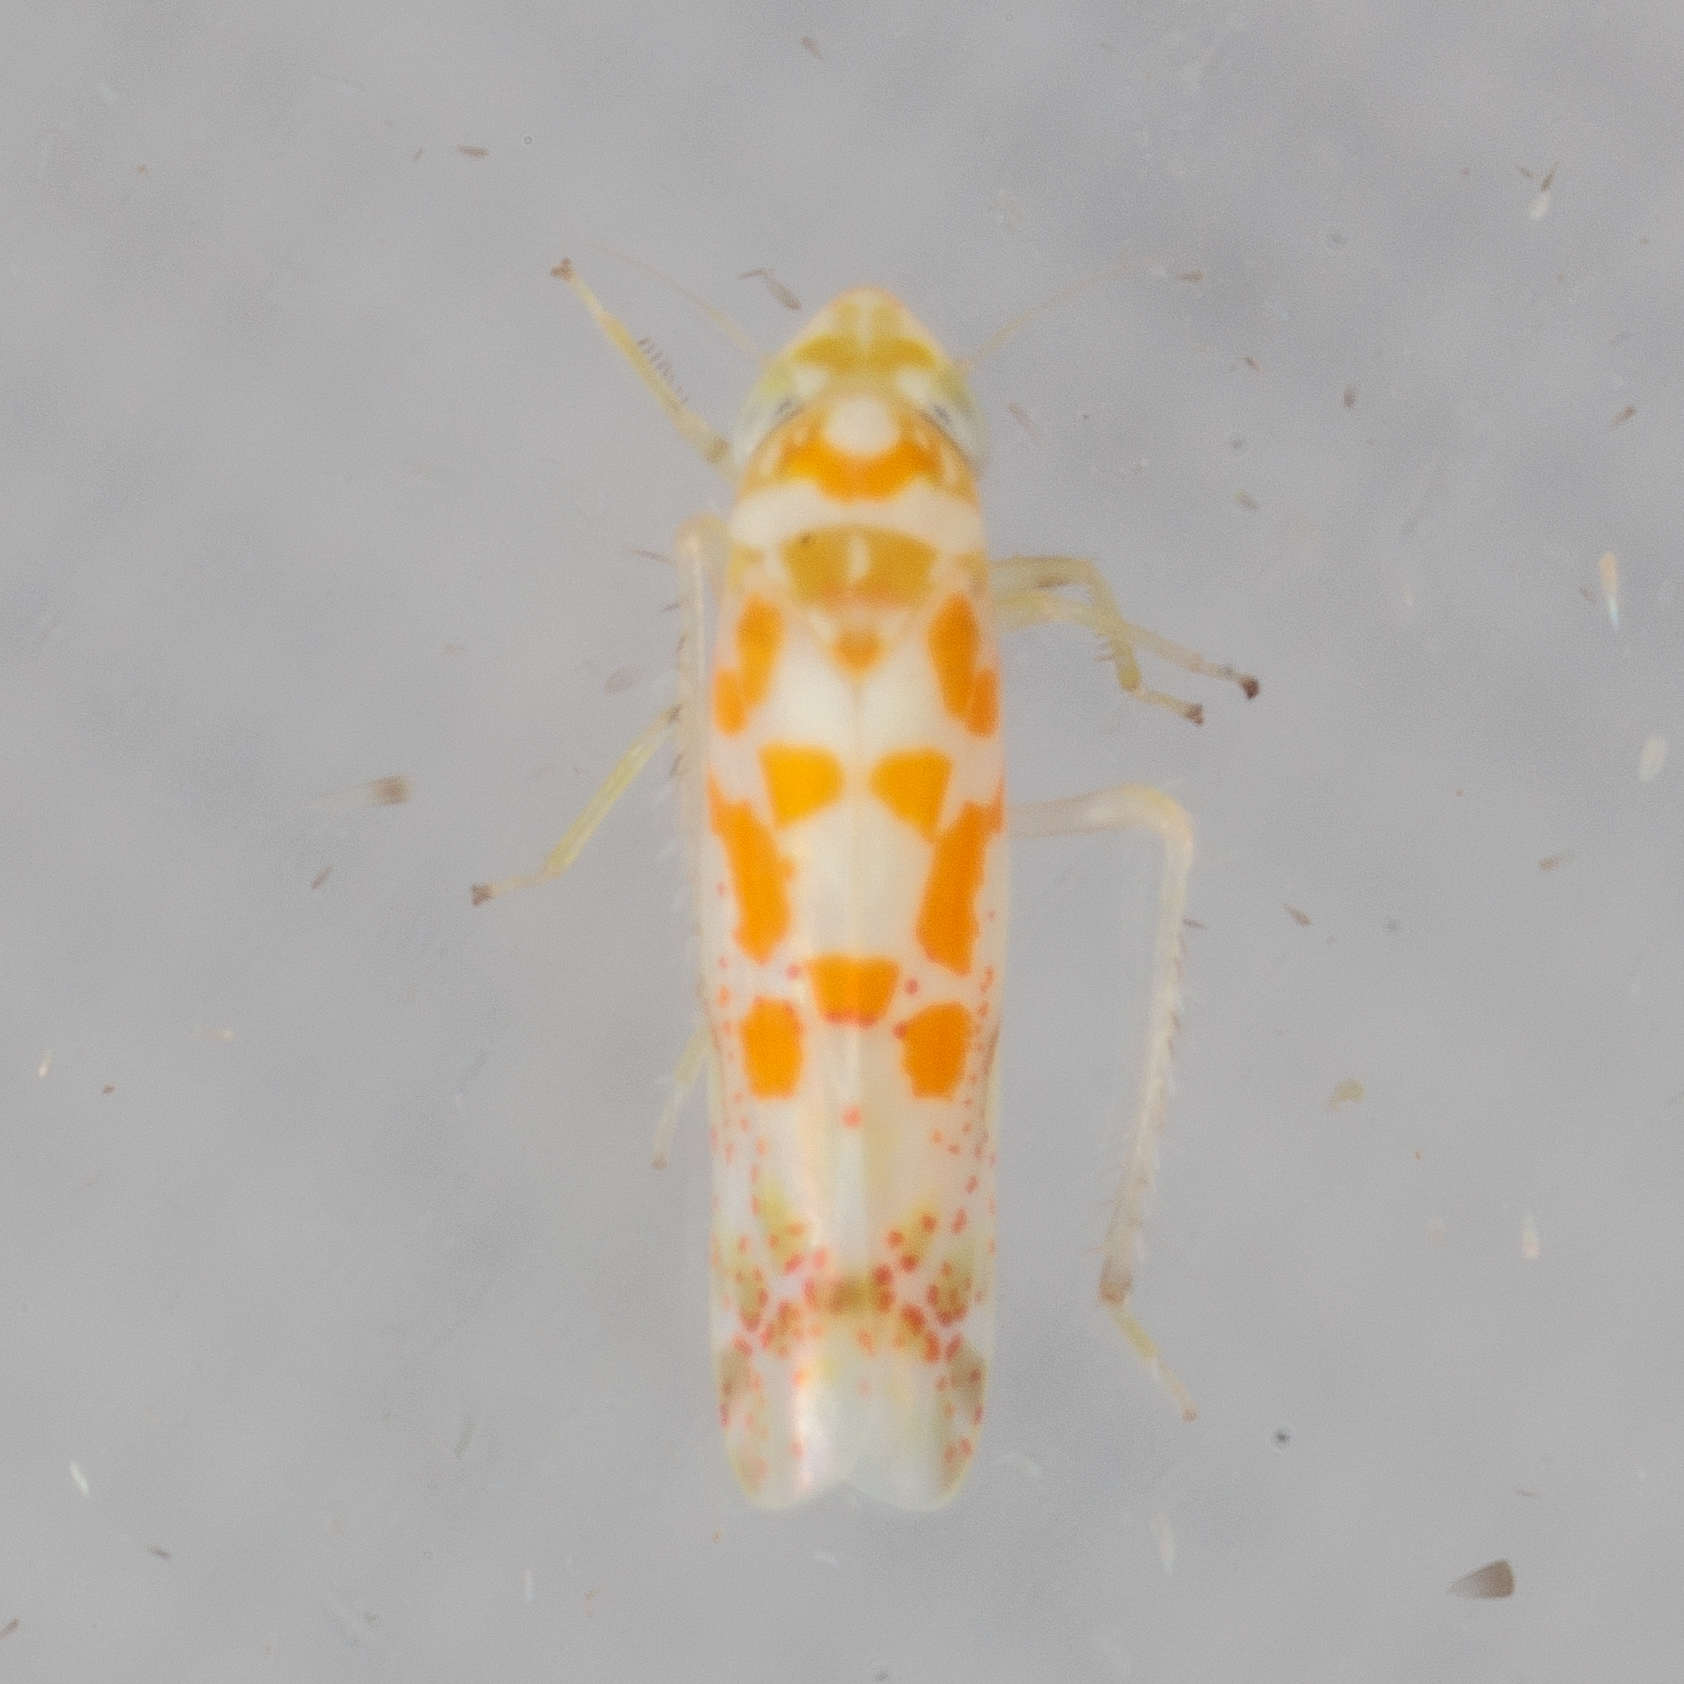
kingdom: Animalia
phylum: Arthropoda
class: Insecta
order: Hemiptera
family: Cicadellidae
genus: Dikrella
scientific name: Dikrella maculata
